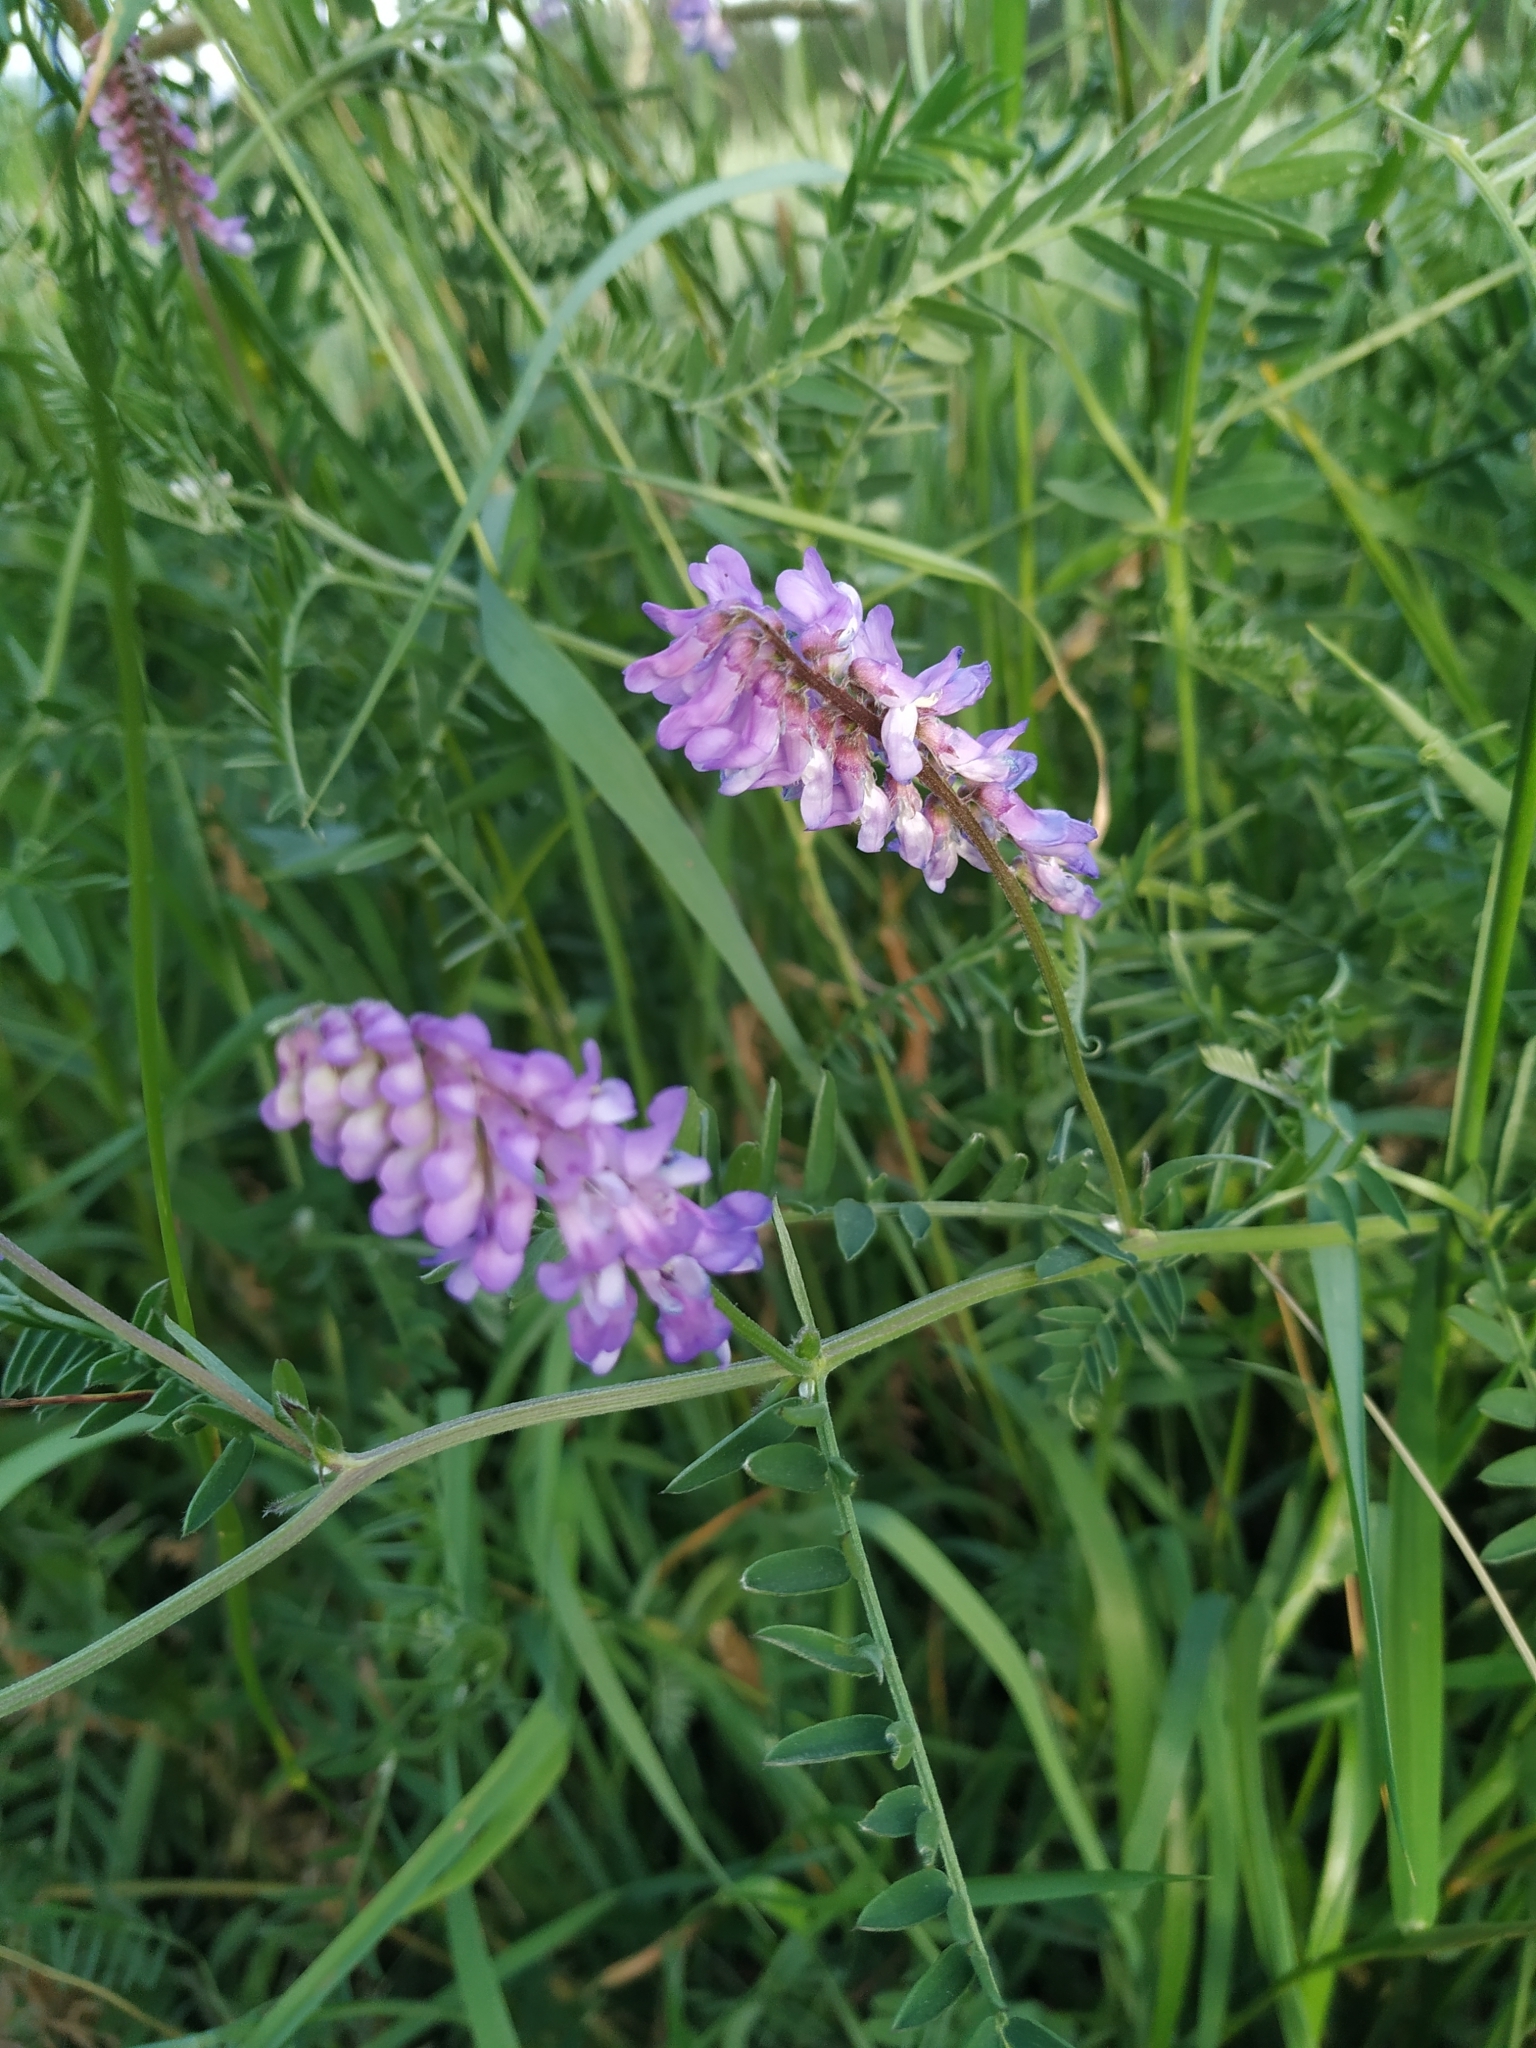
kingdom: Plantae
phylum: Tracheophyta
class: Magnoliopsida
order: Fabales
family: Fabaceae
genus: Vicia
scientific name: Vicia cracca
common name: Bird vetch
